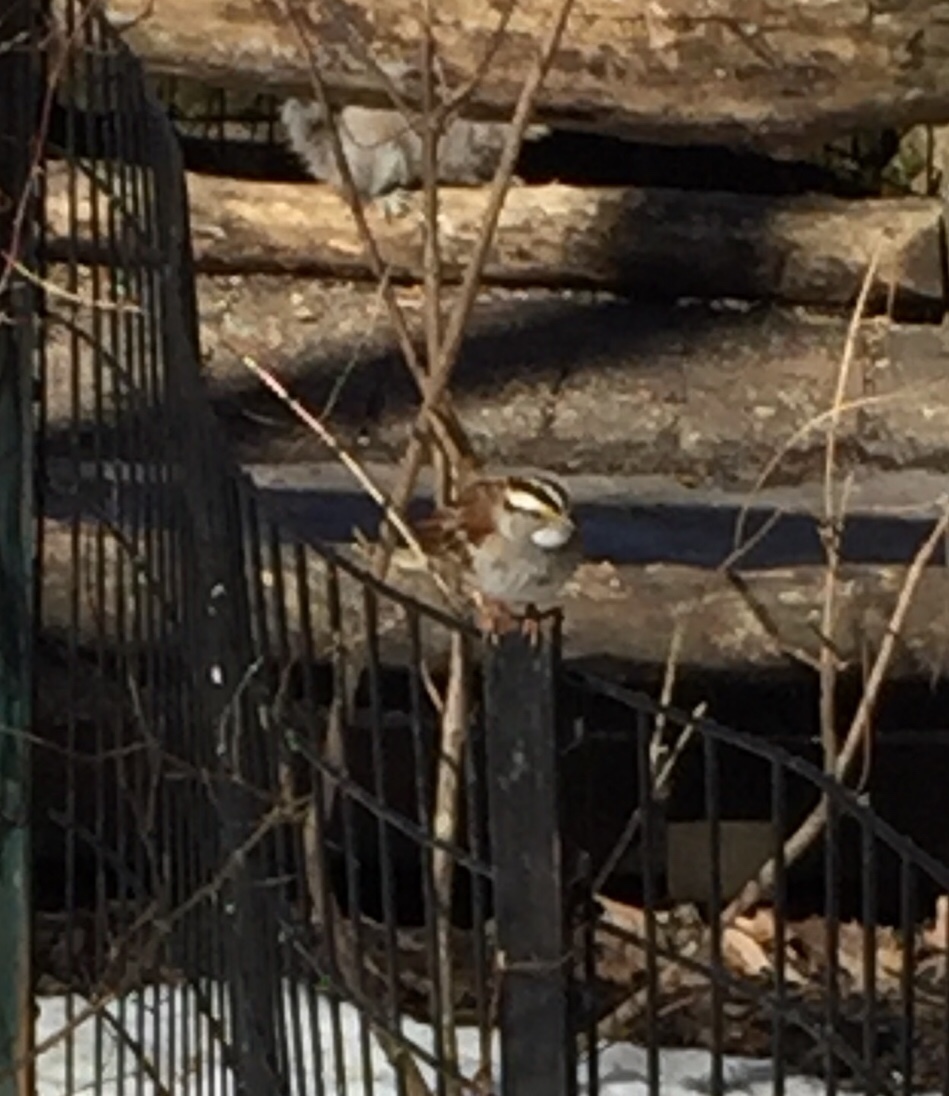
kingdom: Animalia
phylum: Chordata
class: Aves
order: Passeriformes
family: Passerellidae
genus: Zonotrichia
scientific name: Zonotrichia albicollis
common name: White-throated sparrow
